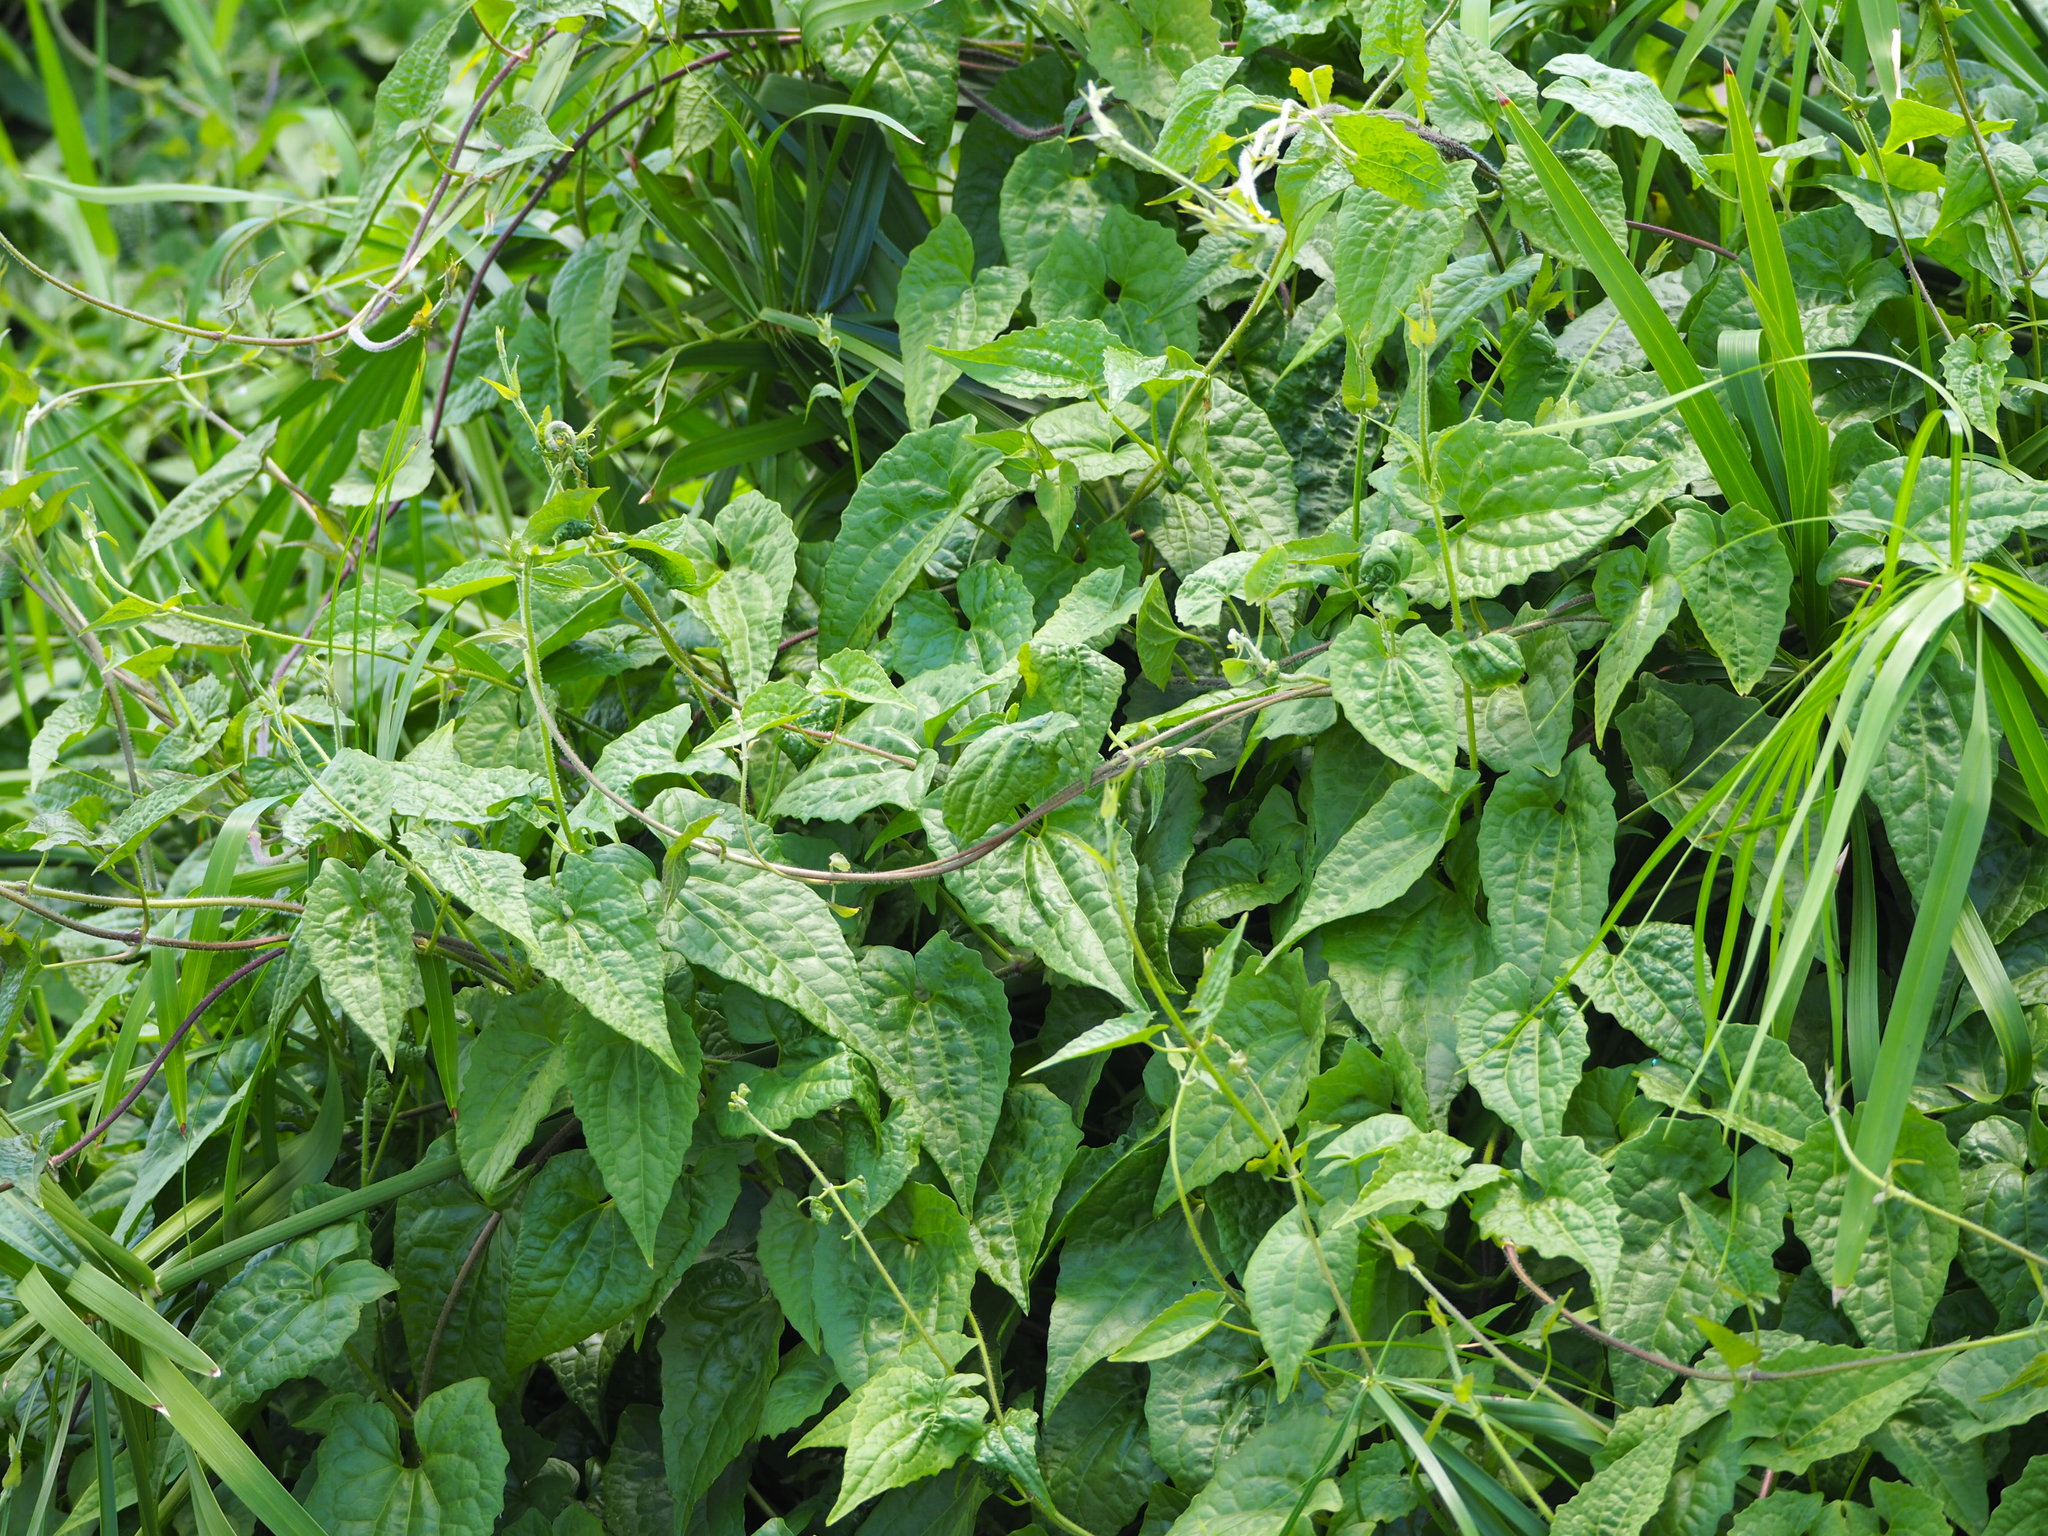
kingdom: Plantae
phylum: Tracheophyta
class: Magnoliopsida
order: Asterales
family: Asteraceae
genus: Mikania
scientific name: Mikania micrantha
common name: Mile-a-minute
